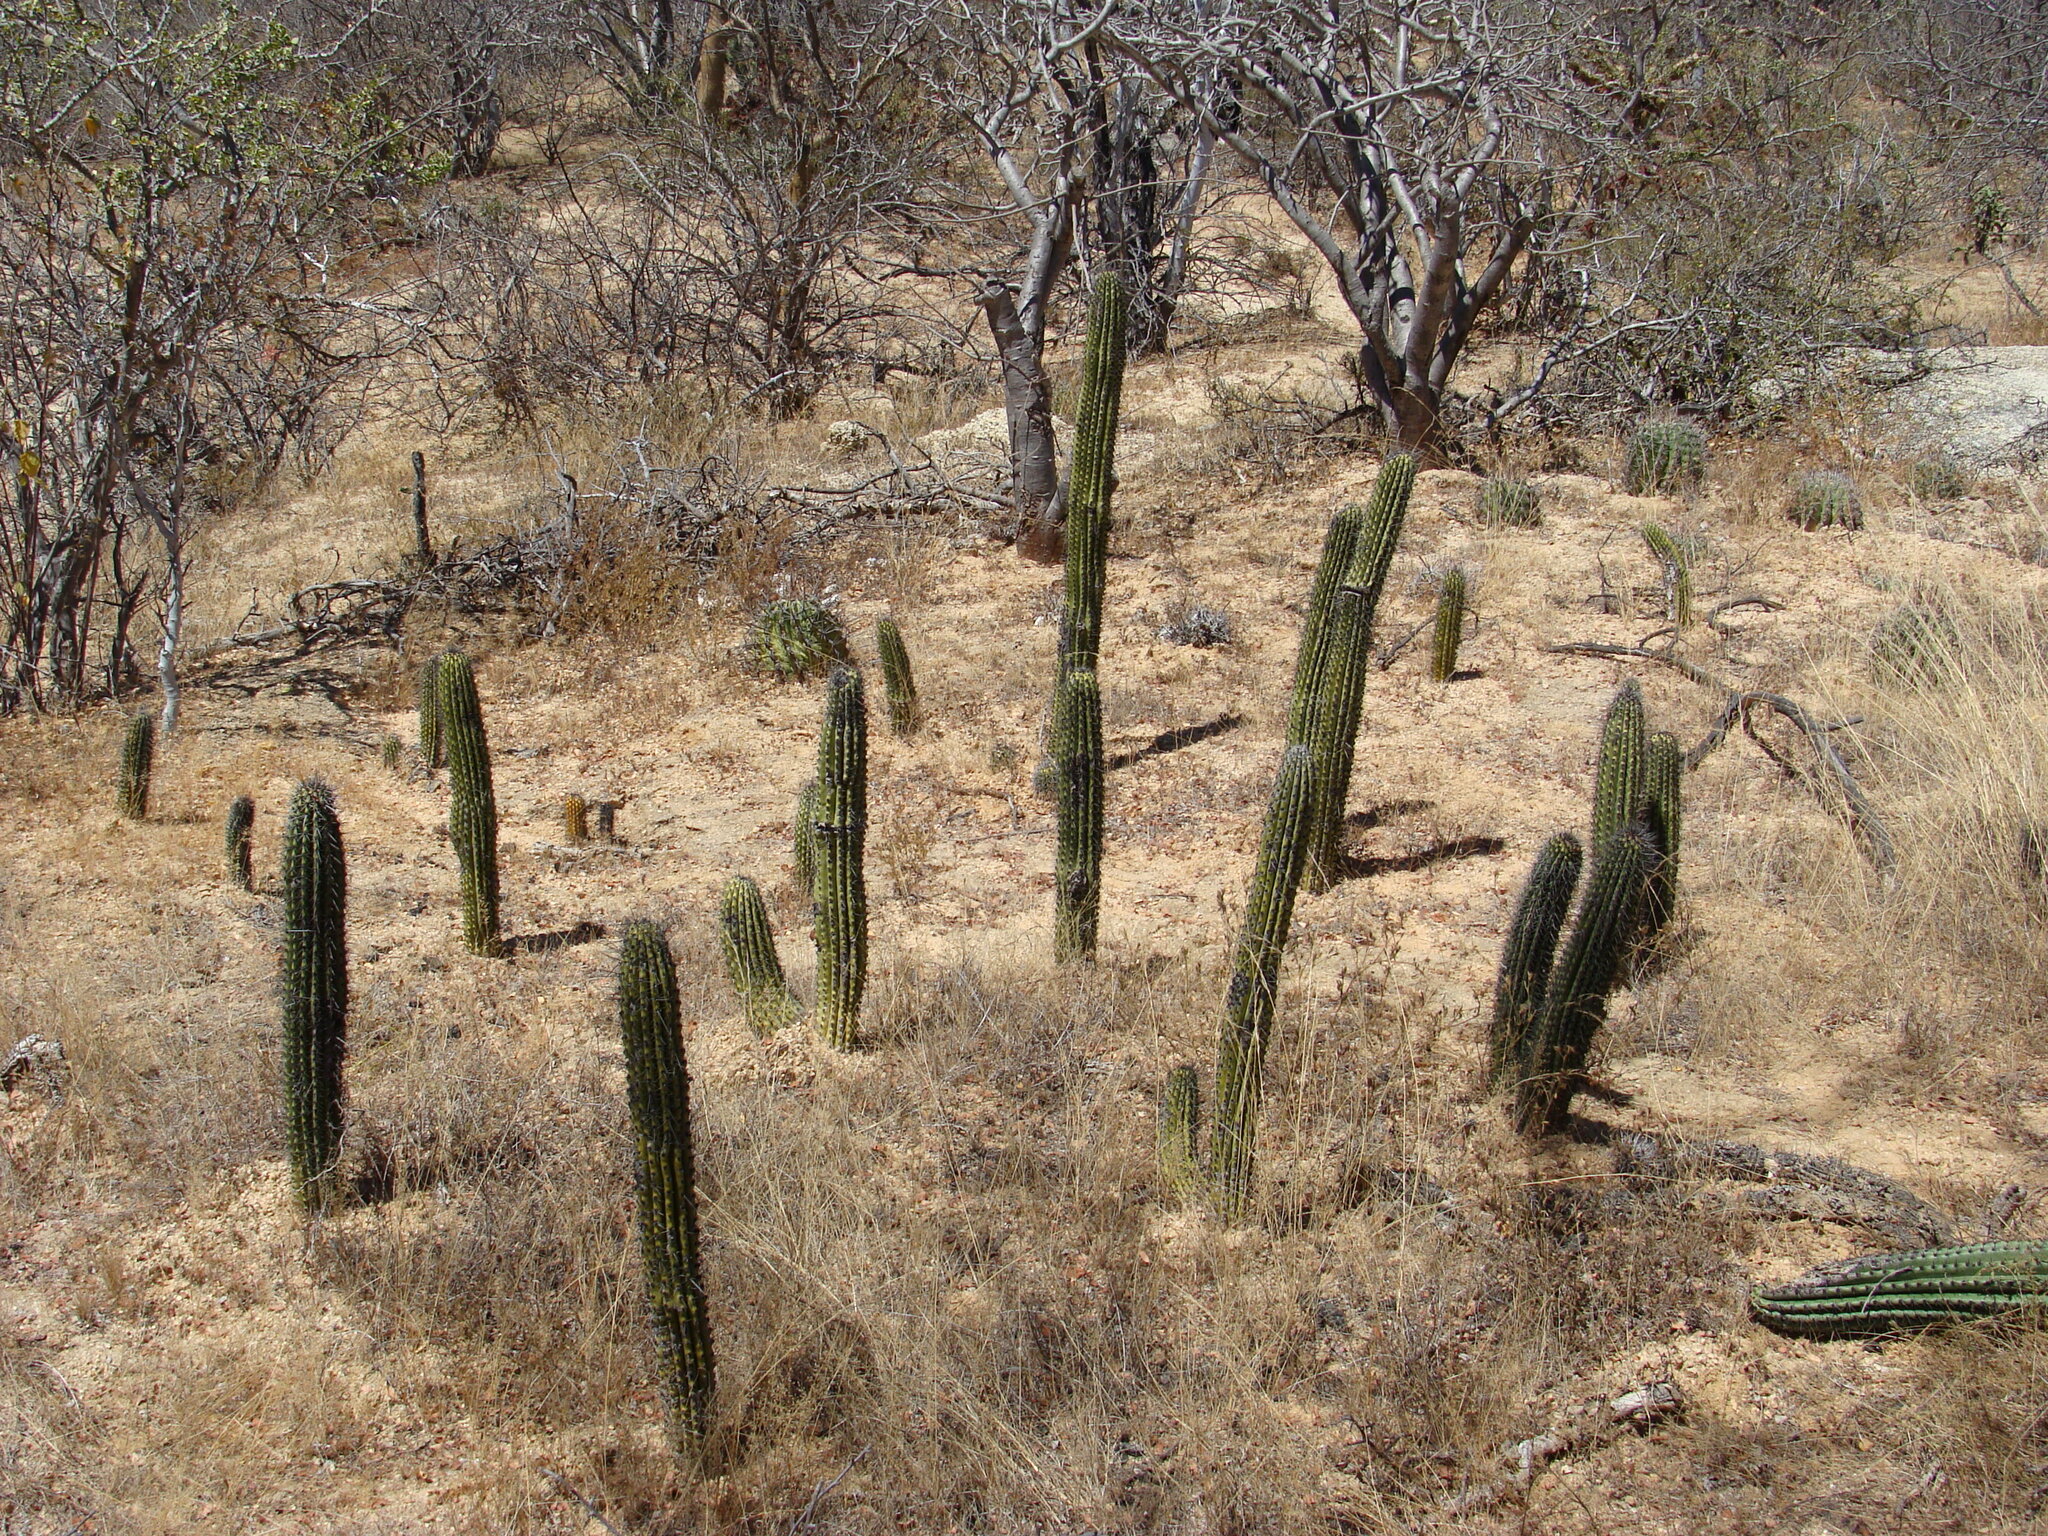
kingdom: Plantae
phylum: Tracheophyta
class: Magnoliopsida
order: Caryophyllales
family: Cactaceae
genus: Stenocereus
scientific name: Stenocereus thurberi
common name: Organ pipe cactus
